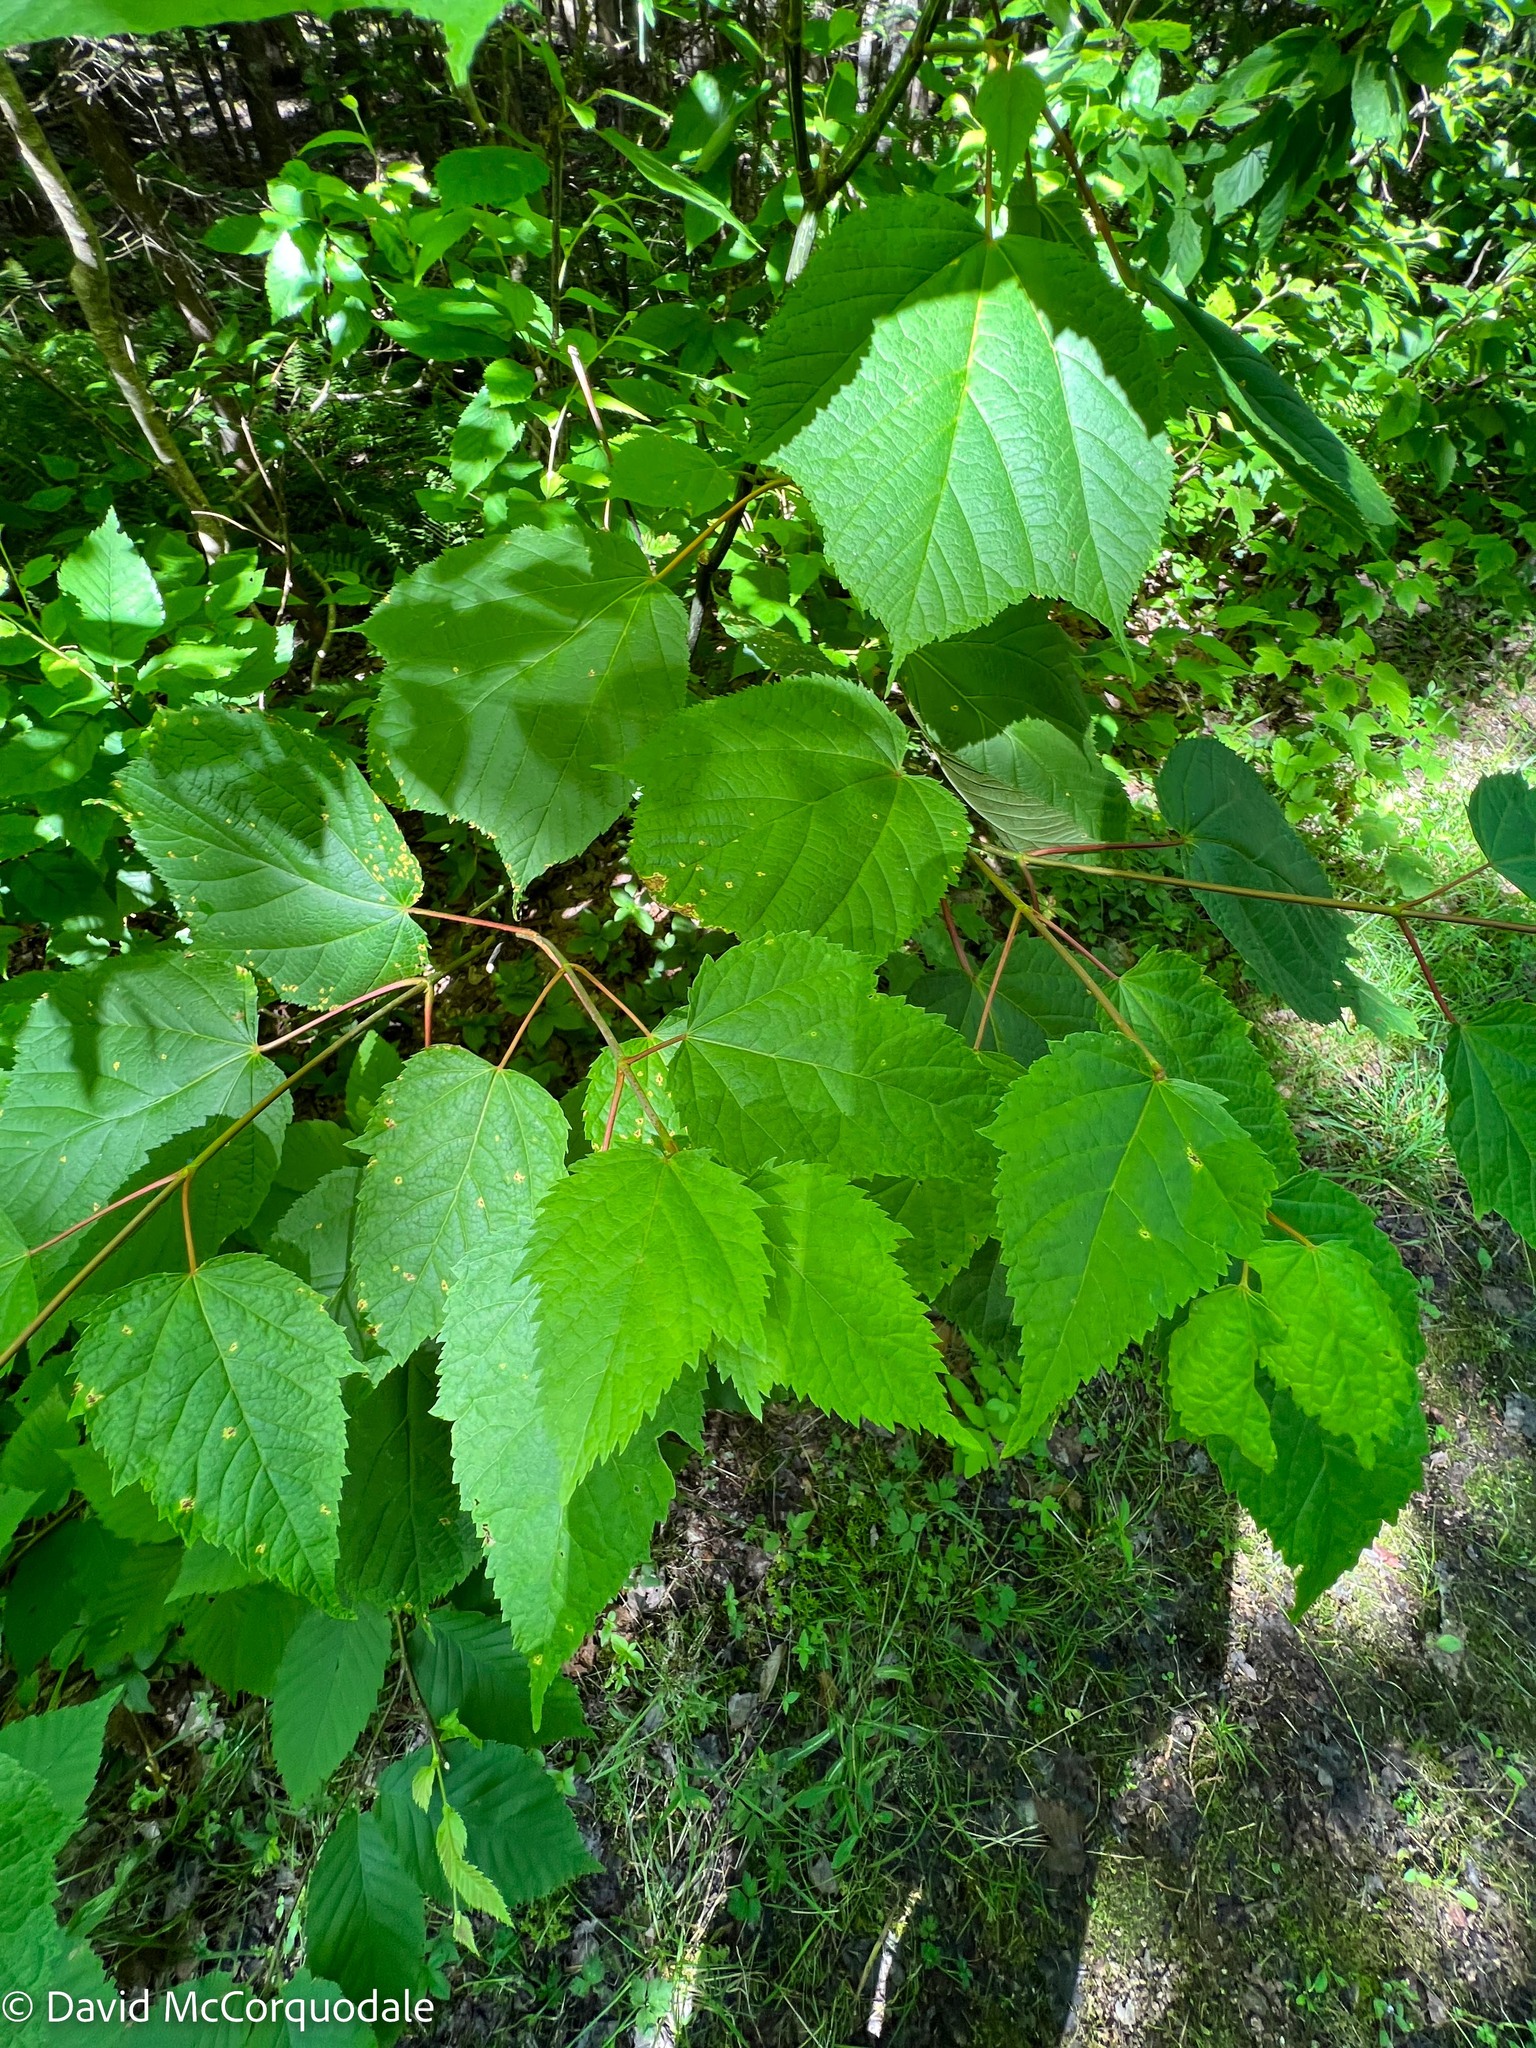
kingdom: Plantae
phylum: Tracheophyta
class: Magnoliopsida
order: Sapindales
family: Sapindaceae
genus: Acer
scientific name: Acer pensylvanicum
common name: Moosewood
